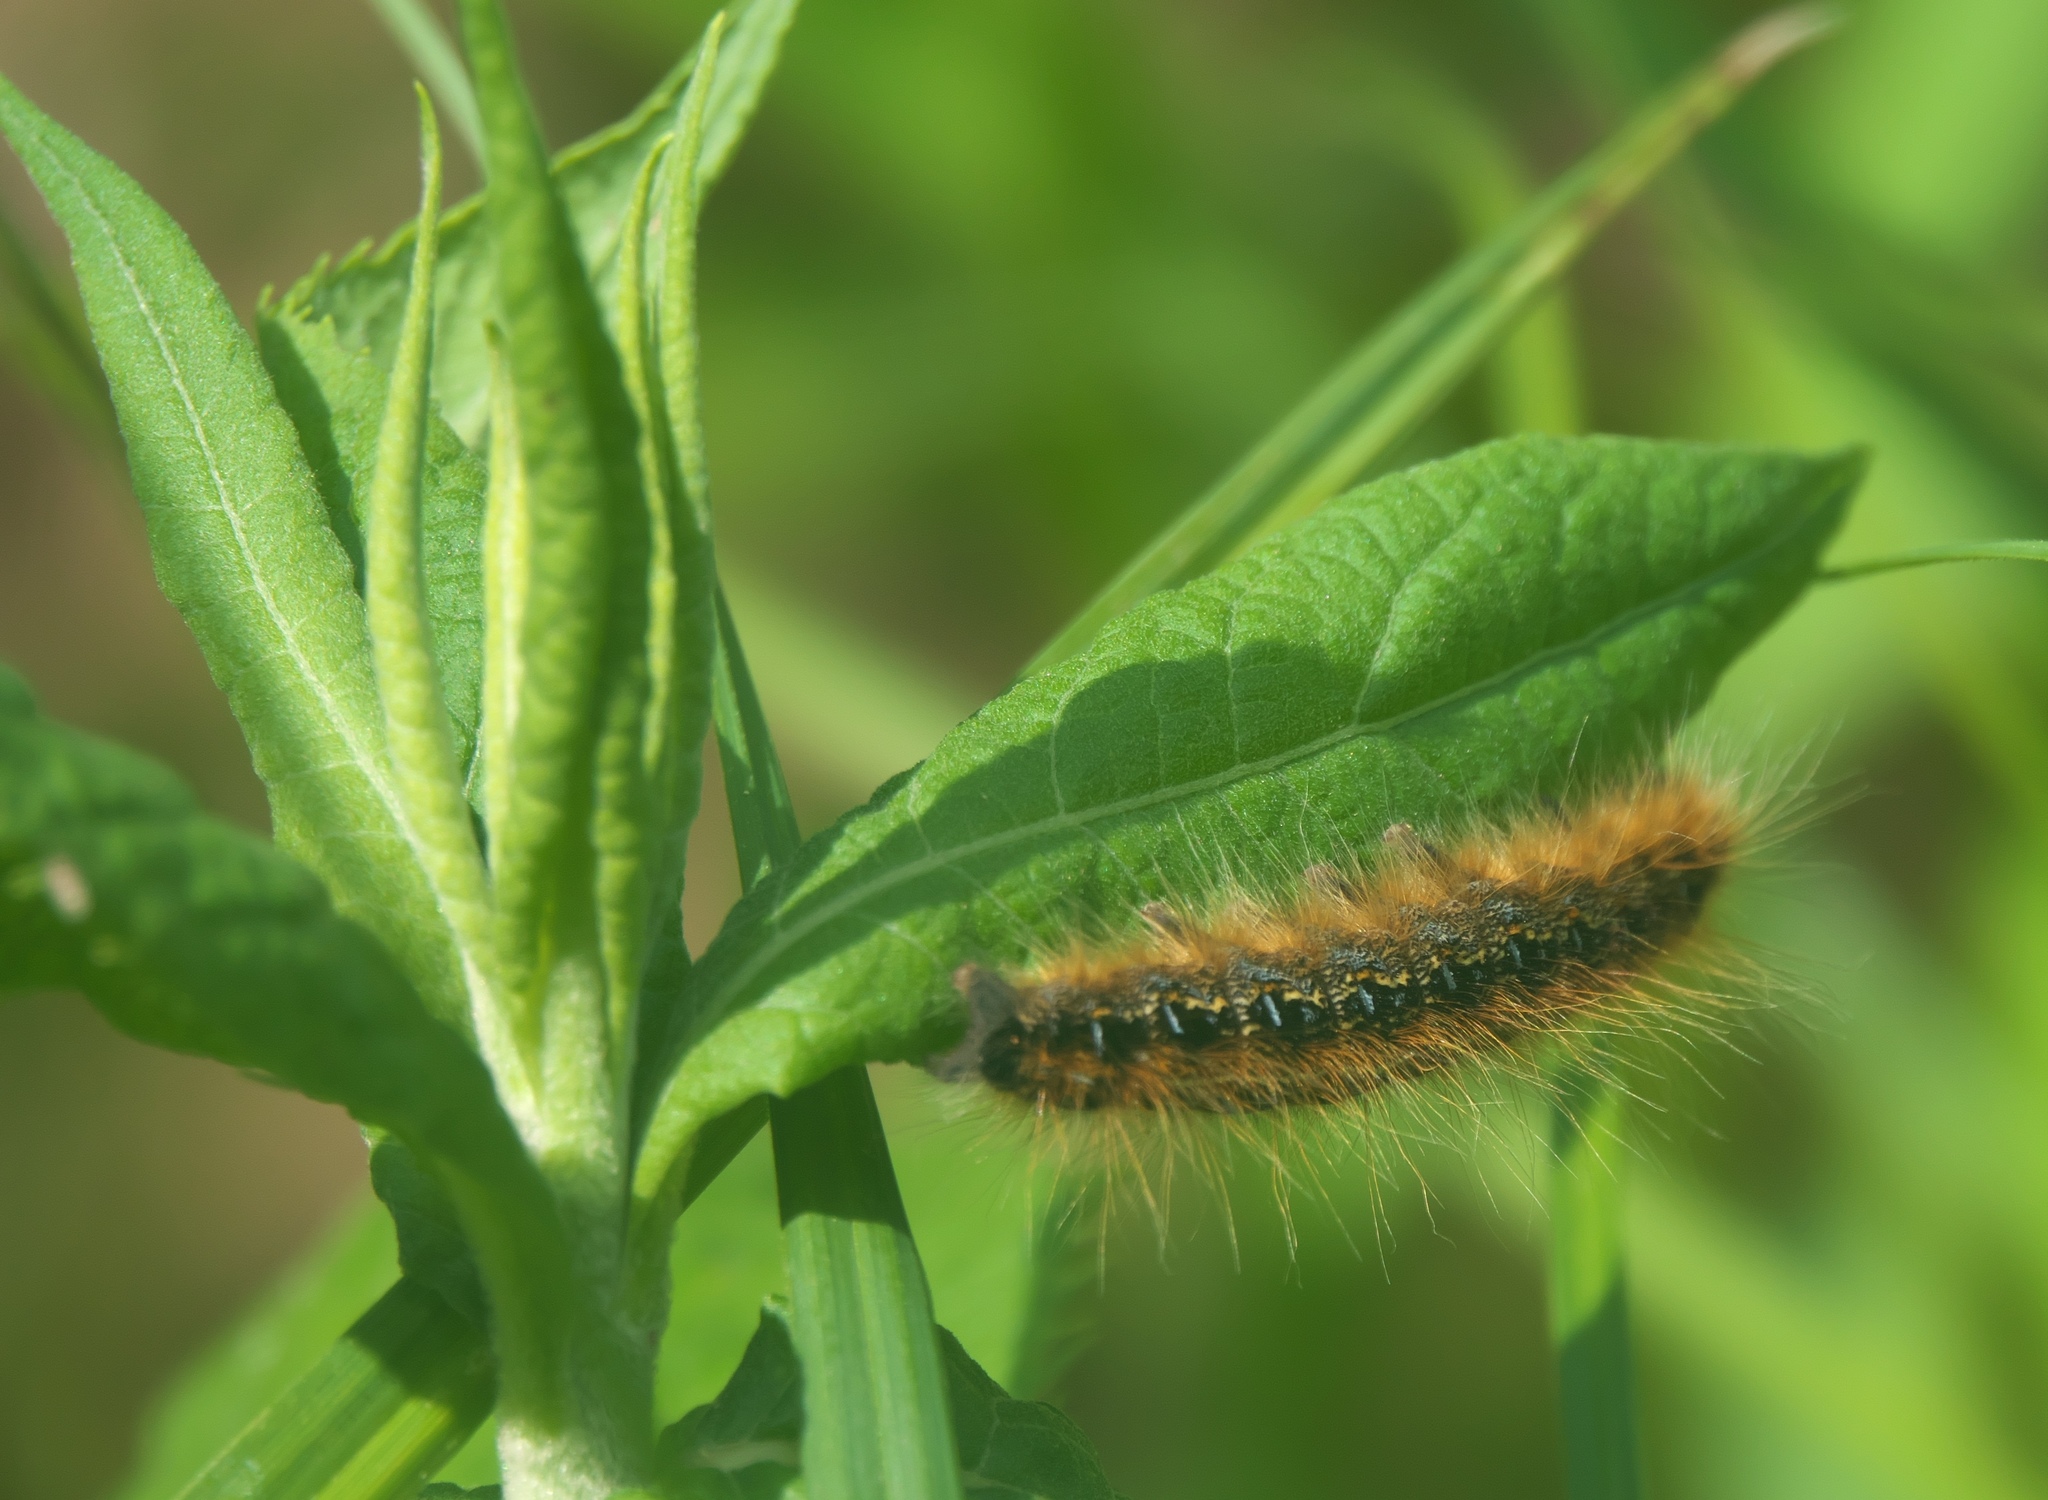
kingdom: Animalia
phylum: Arthropoda
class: Insecta
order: Lepidoptera
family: Lasiocampidae
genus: Malacosoma
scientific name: Malacosoma americana
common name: Eastern tent caterpillar moth
